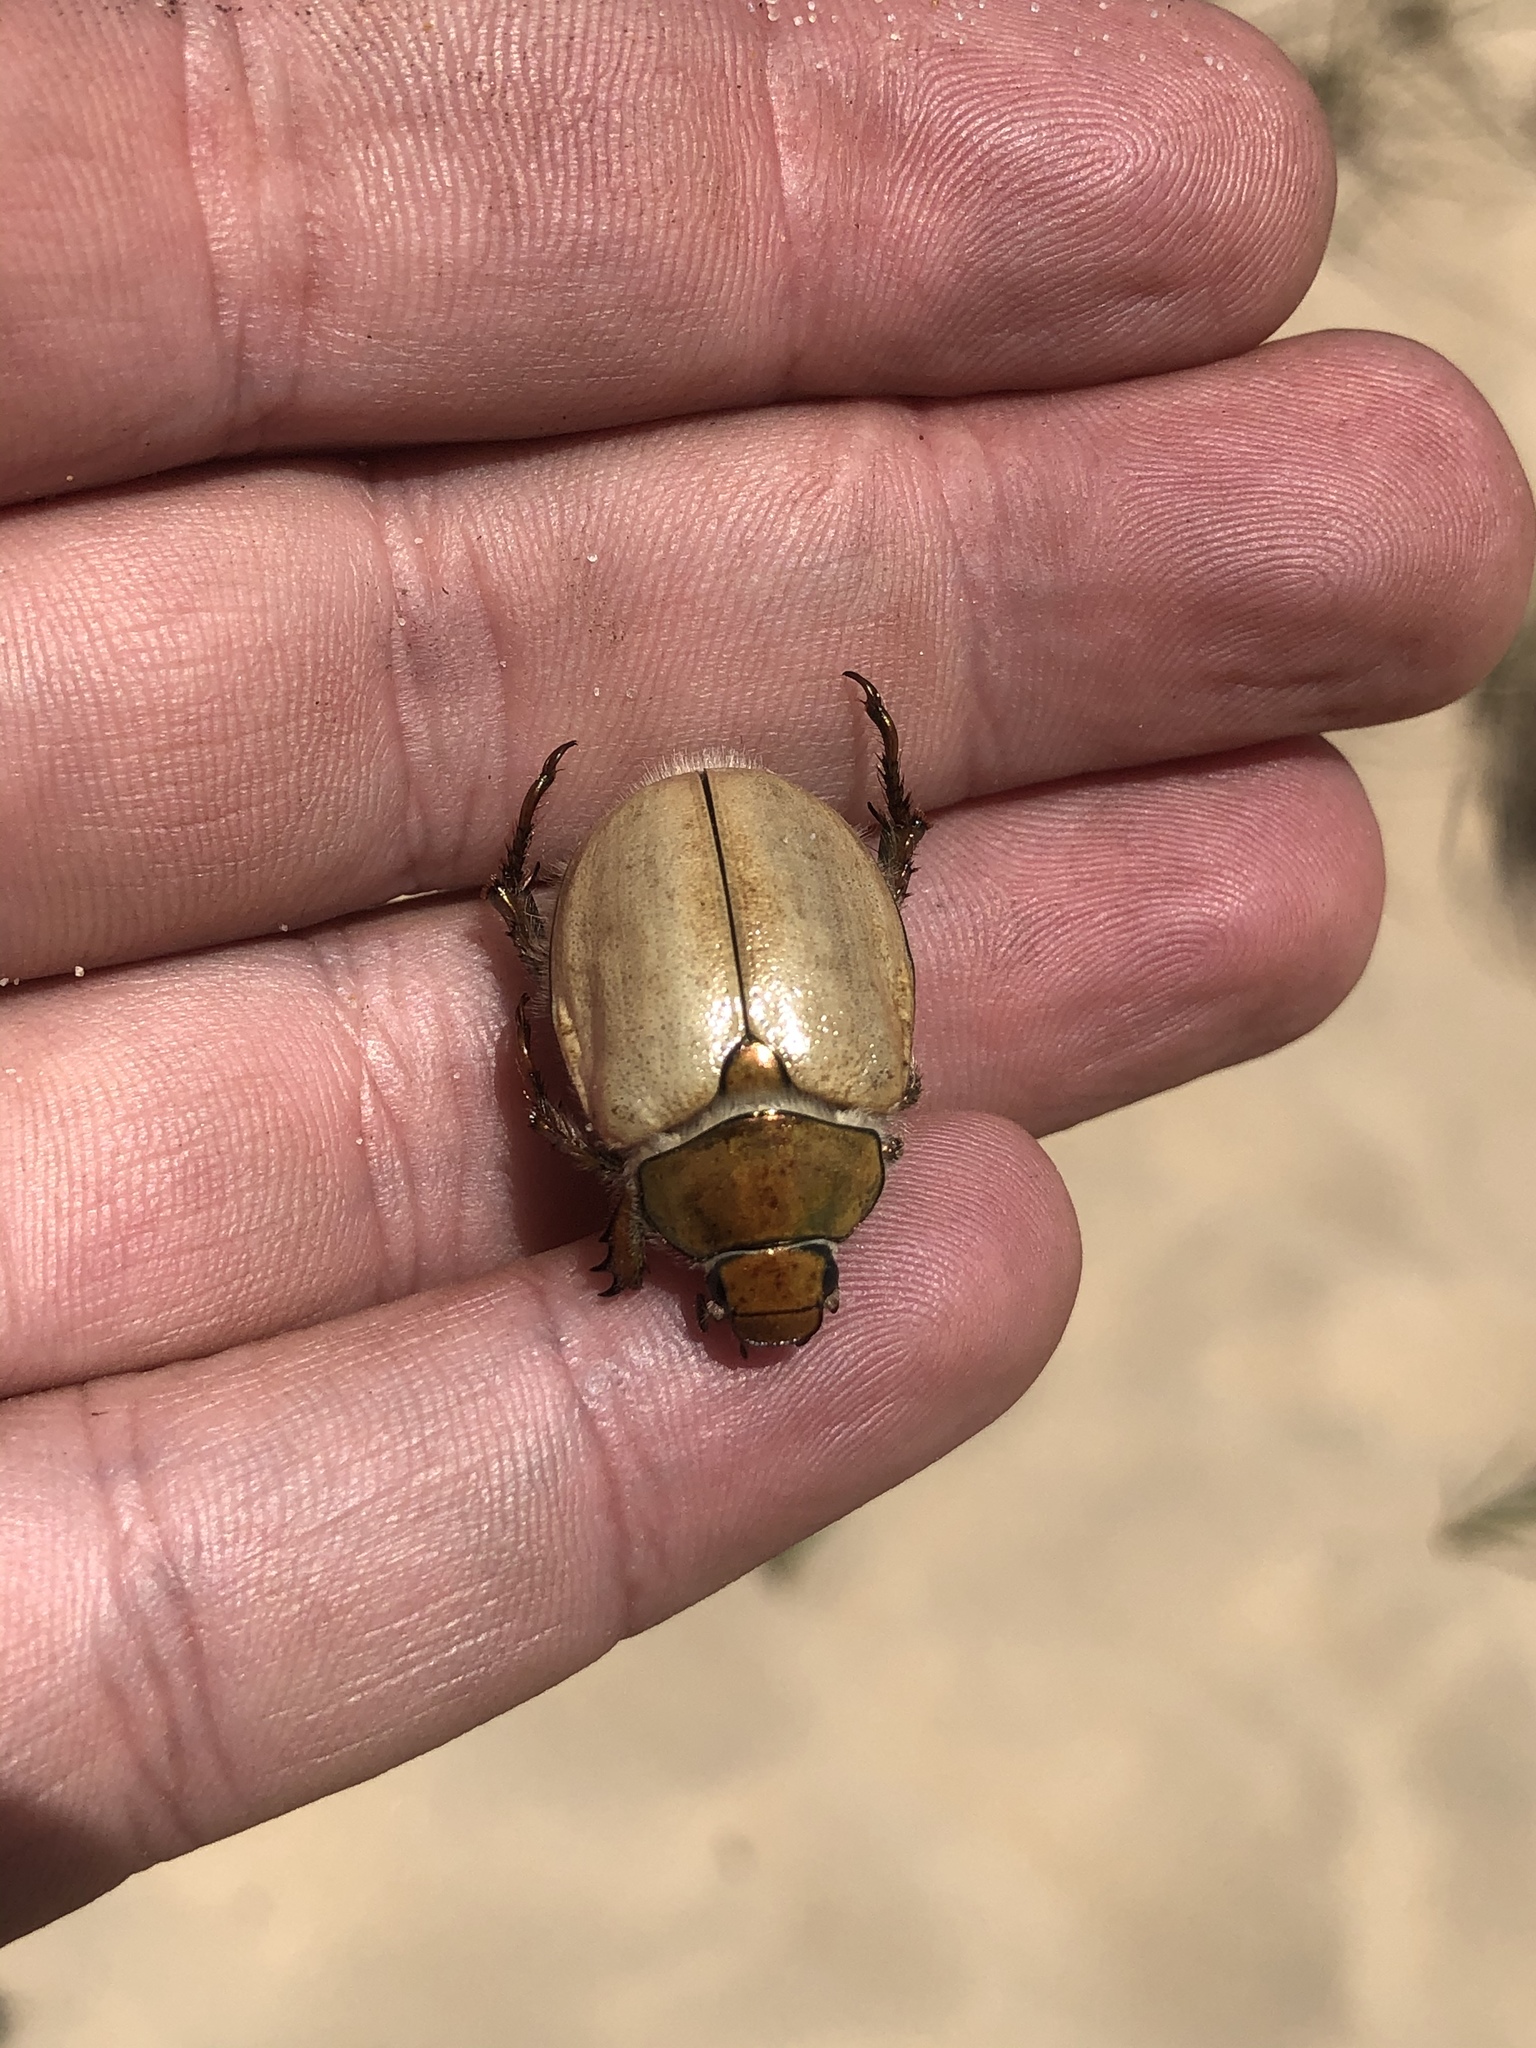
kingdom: Animalia
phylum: Arthropoda
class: Insecta
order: Coleoptera
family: Scarabaeidae
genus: Cotalpa
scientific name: Cotalpa lanigera
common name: Goldsmith beetle
